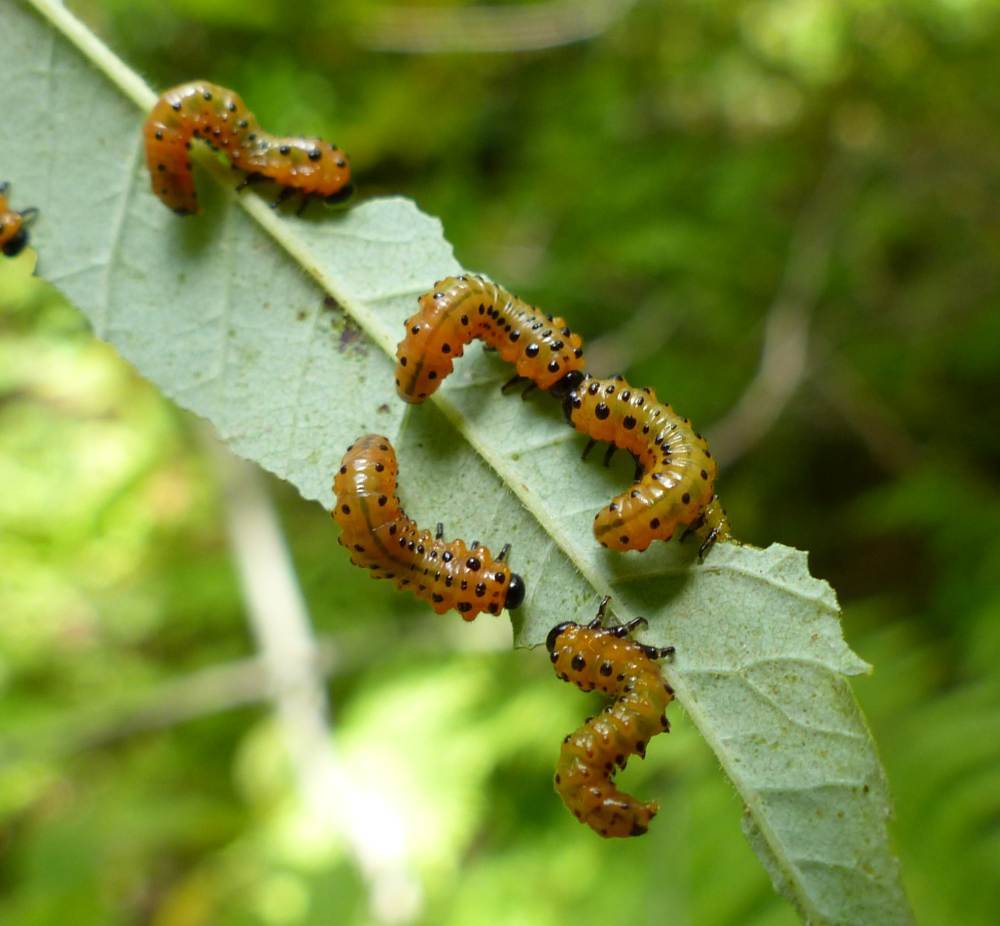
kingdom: Animalia
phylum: Arthropoda
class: Insecta
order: Hymenoptera
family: Argidae
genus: Arge
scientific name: Arge
